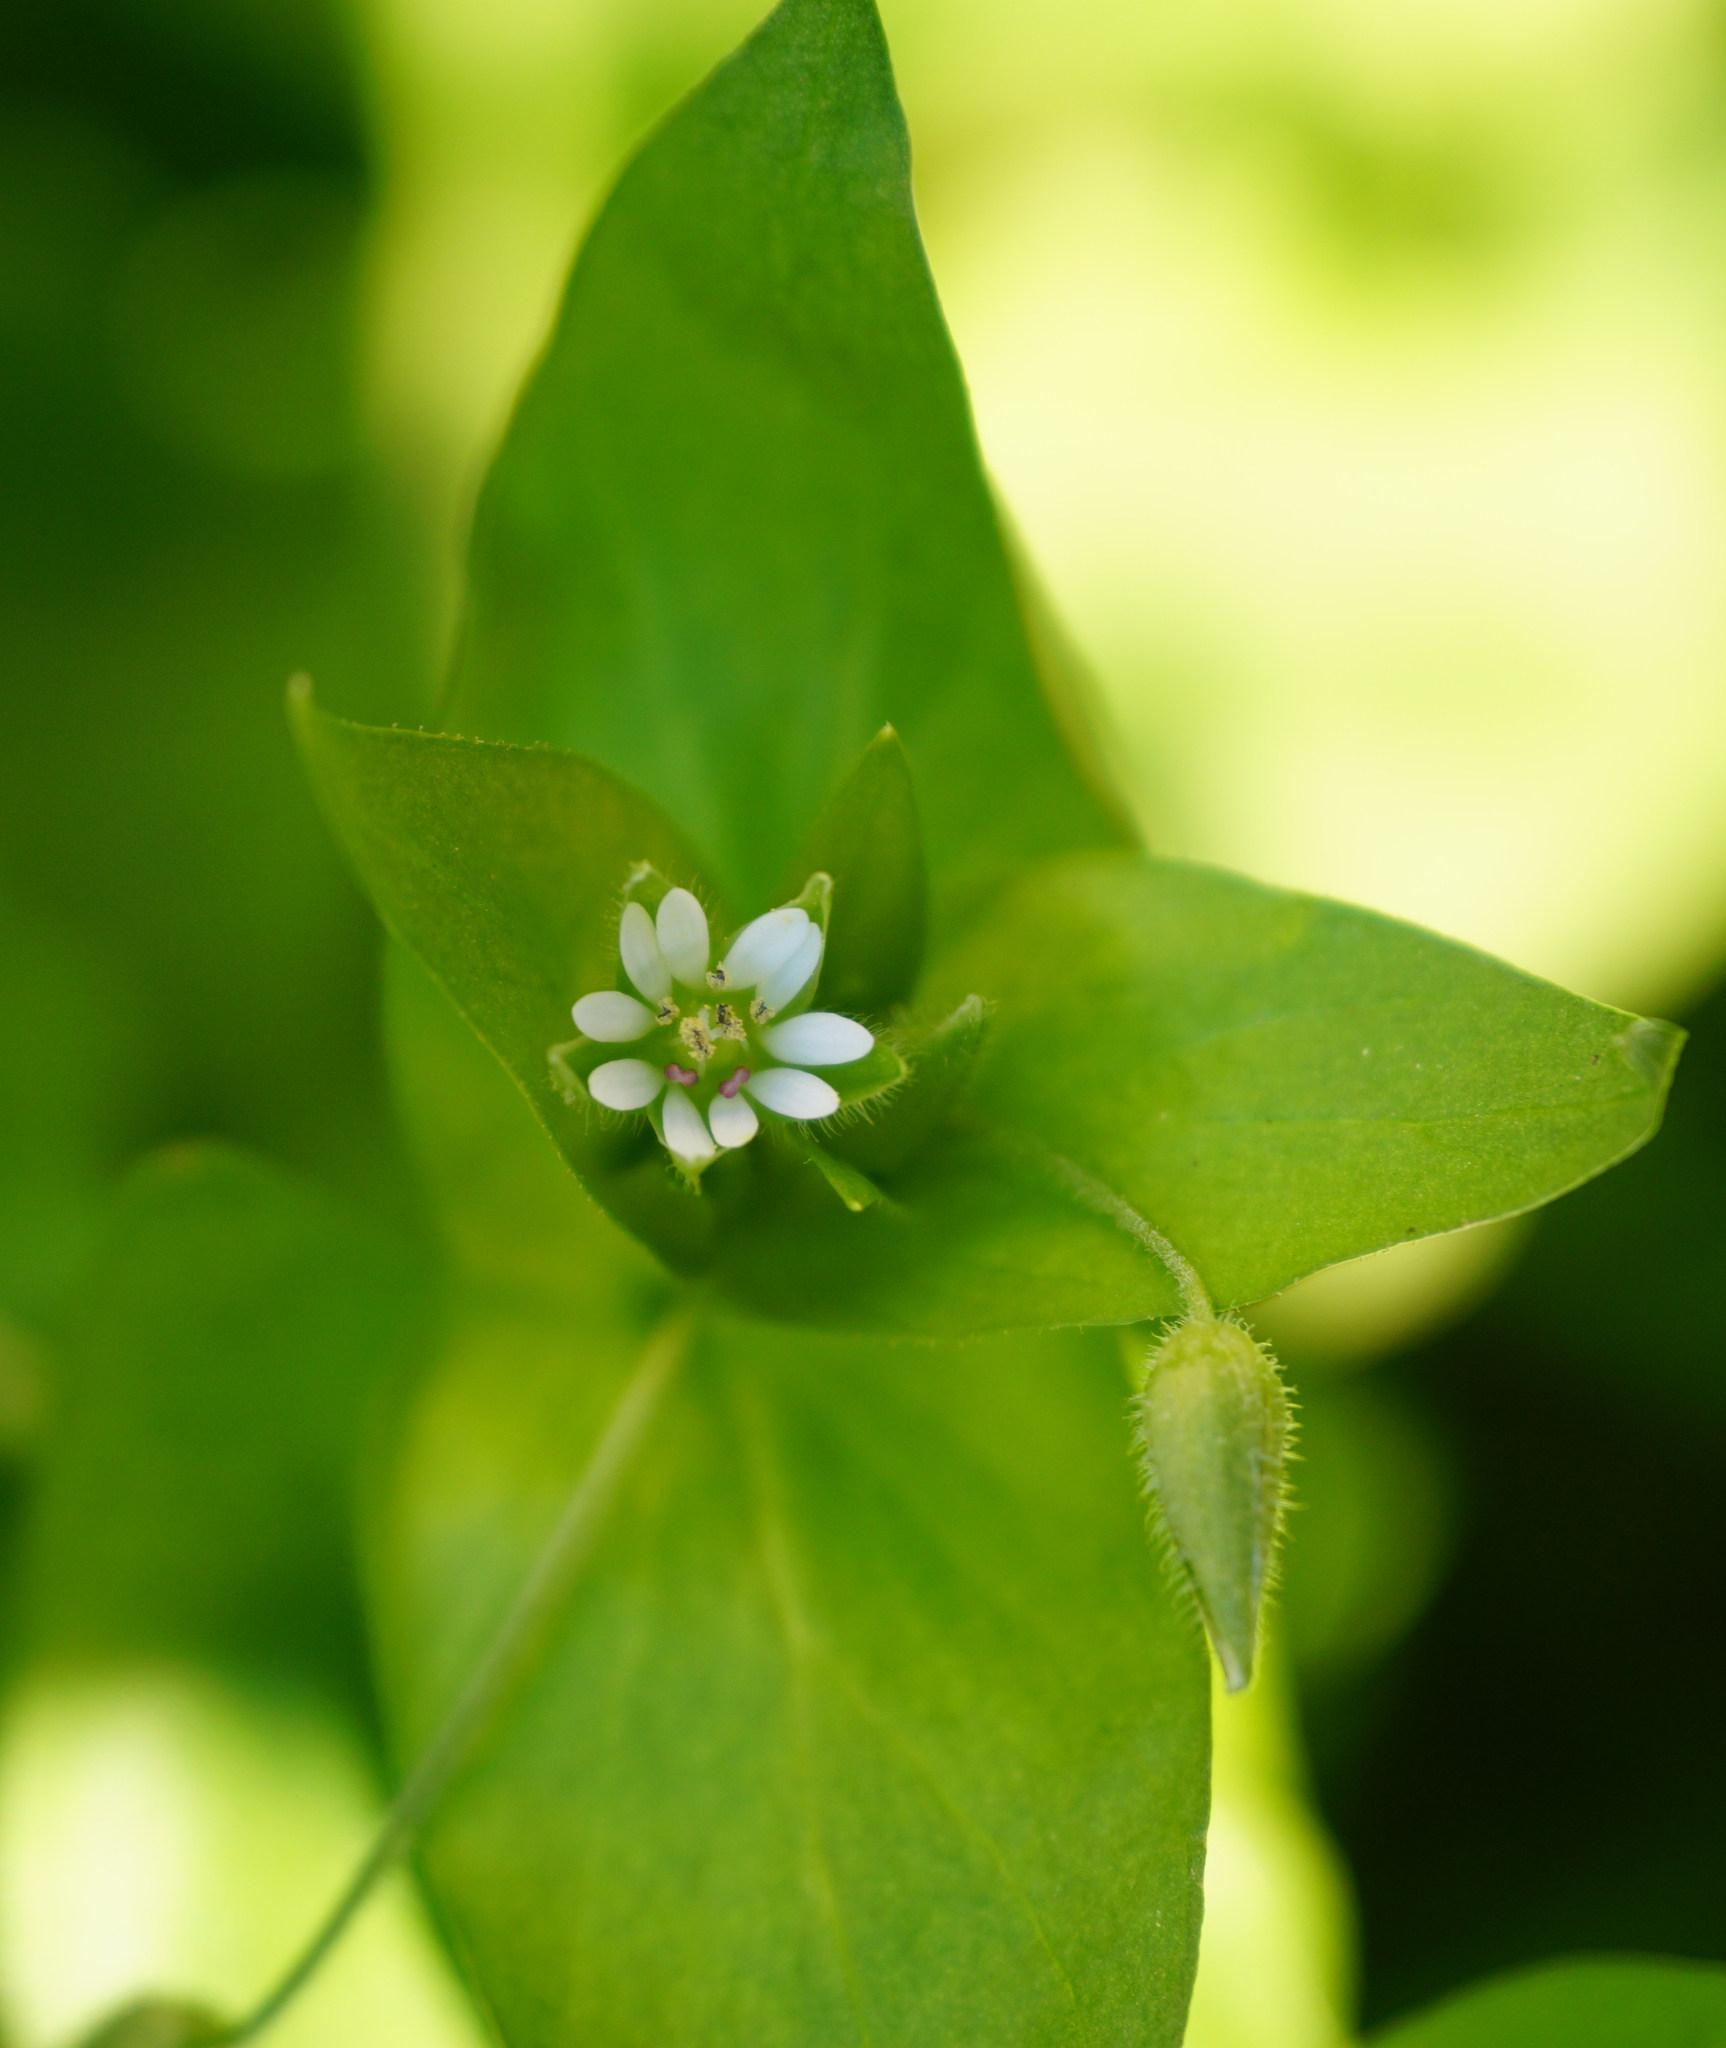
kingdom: Plantae
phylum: Tracheophyta
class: Magnoliopsida
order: Caryophyllales
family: Caryophyllaceae
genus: Stellaria
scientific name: Stellaria media
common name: Common chickweed
